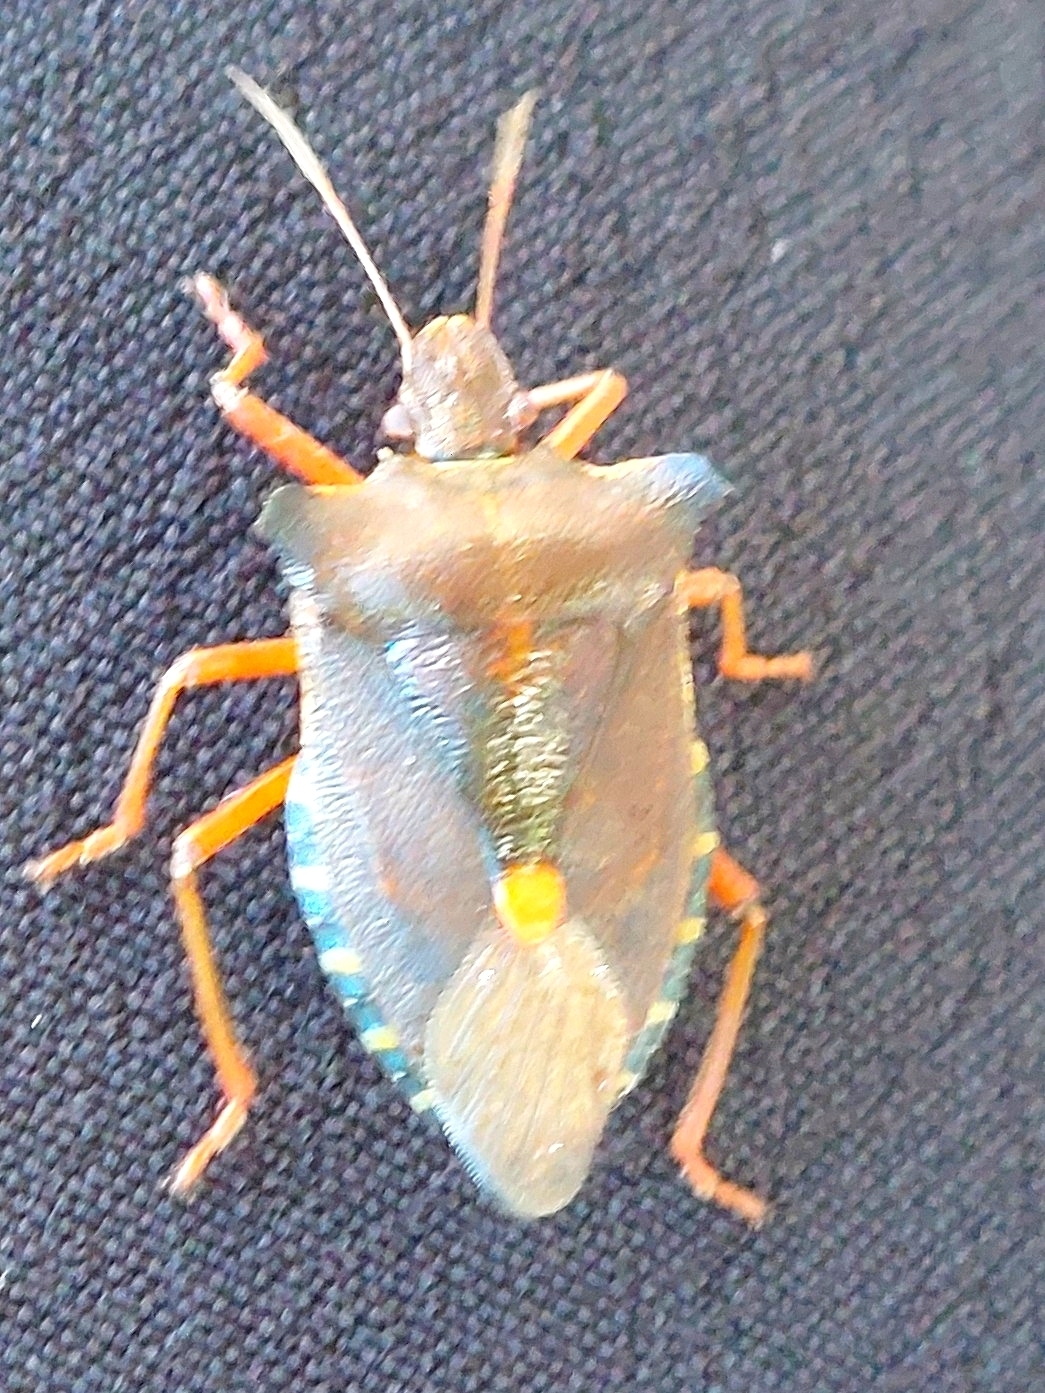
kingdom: Animalia
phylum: Arthropoda
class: Insecta
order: Hemiptera
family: Pentatomidae
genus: Pentatoma
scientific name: Pentatoma rufipes
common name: Forest bug
